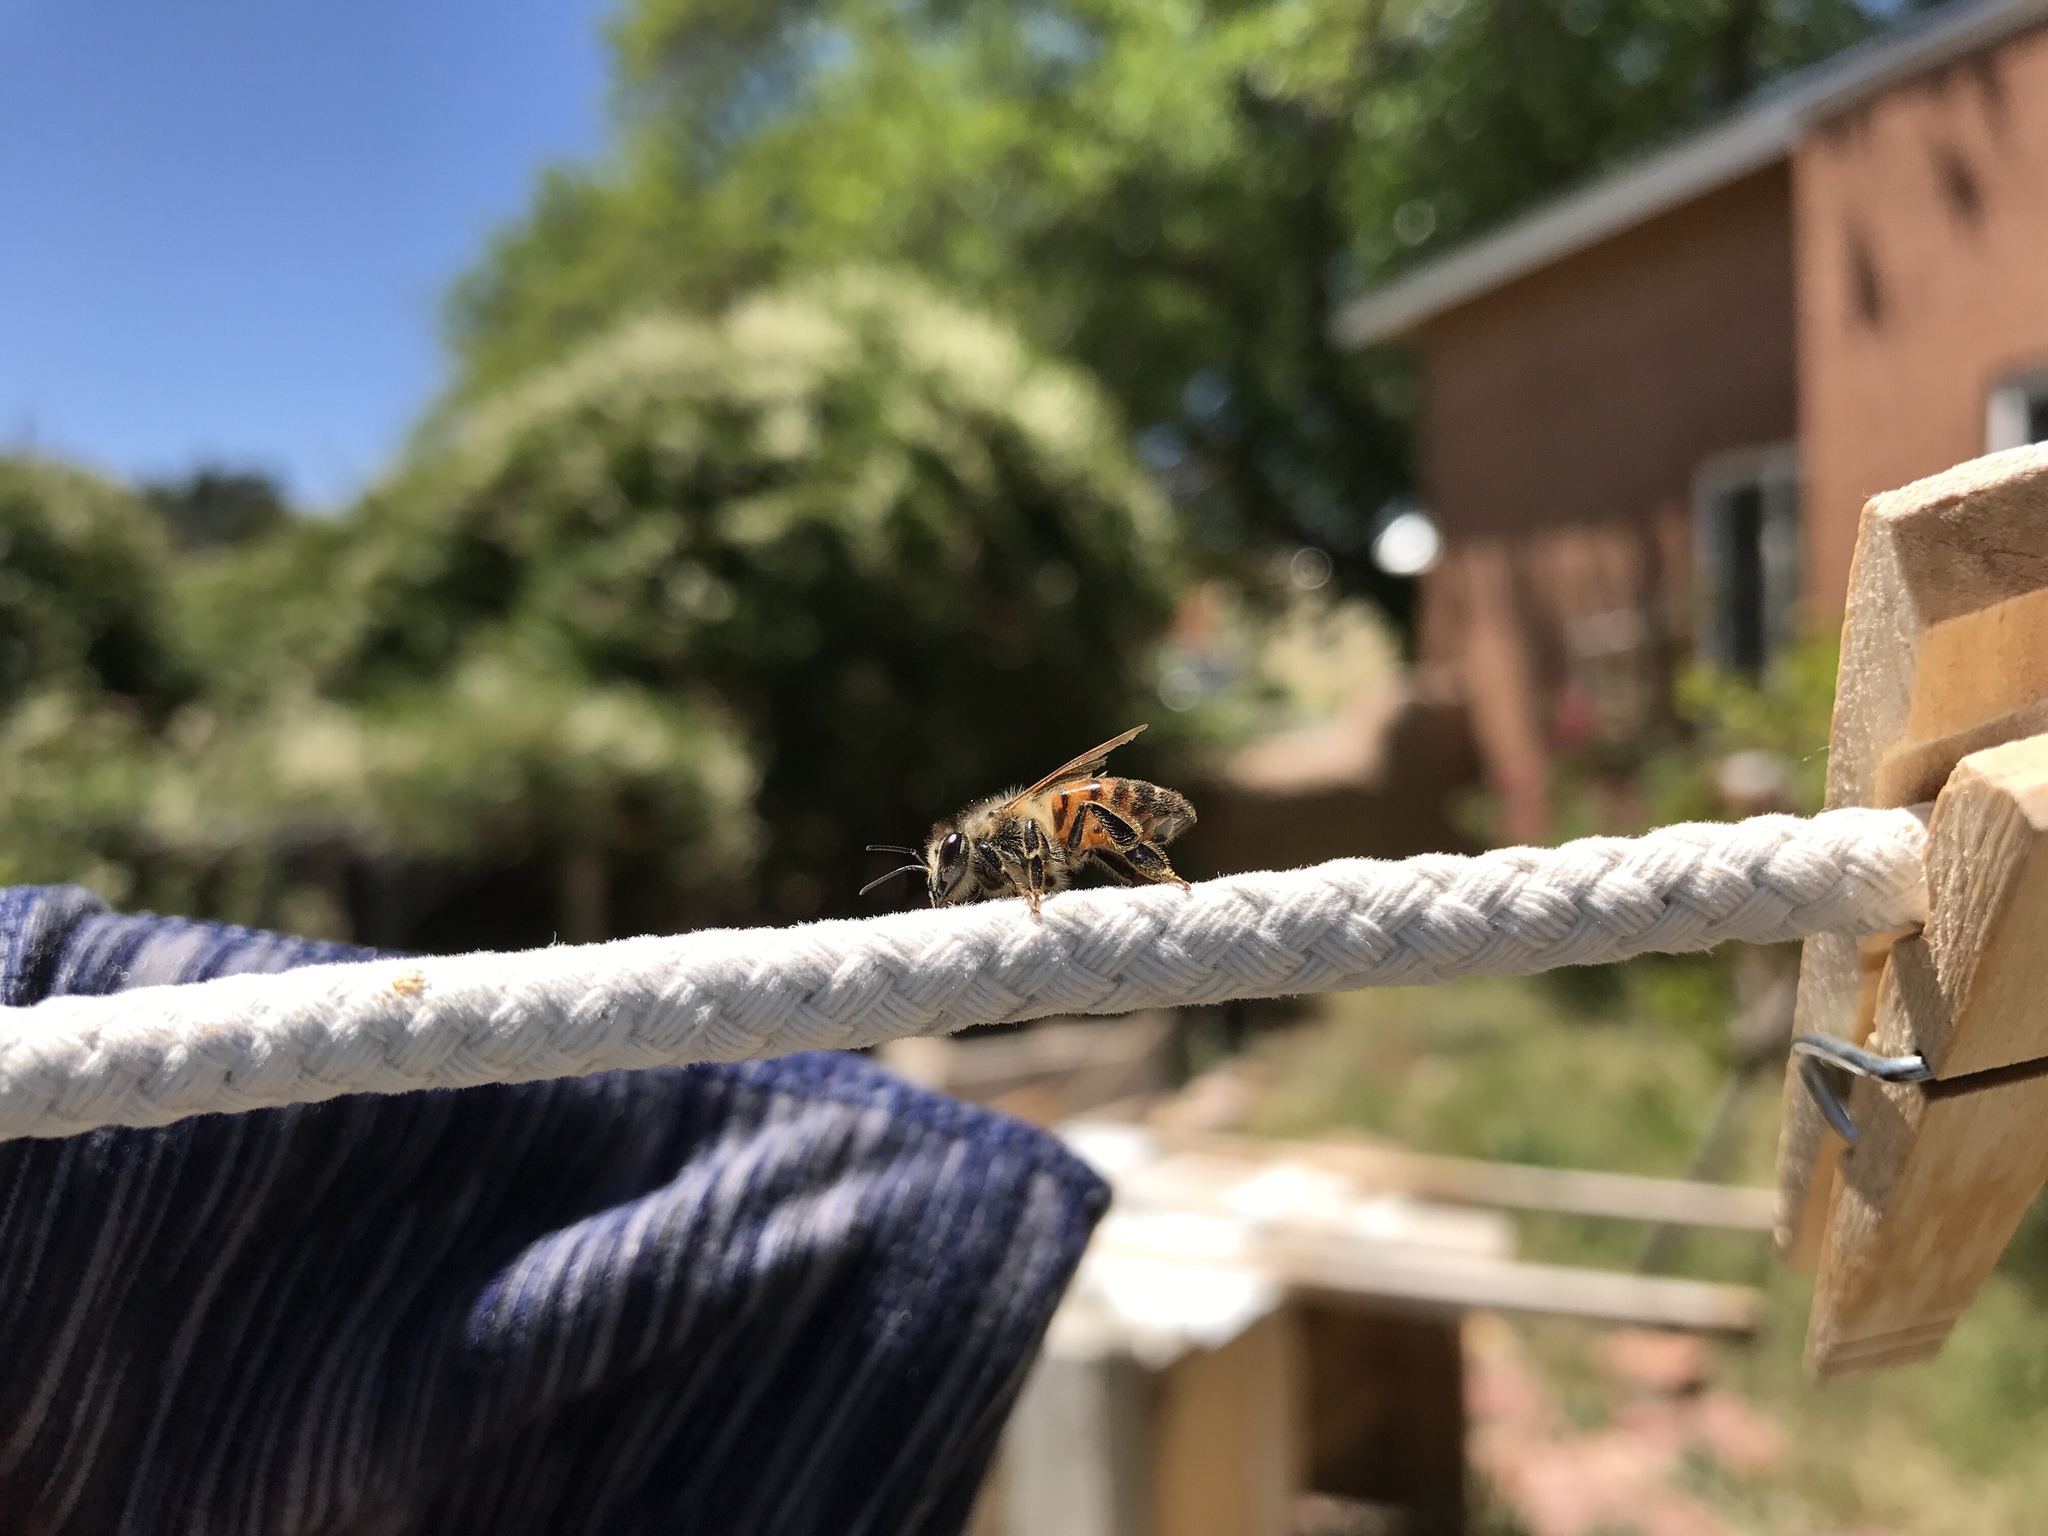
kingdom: Animalia
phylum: Arthropoda
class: Insecta
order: Hymenoptera
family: Apidae
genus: Apis
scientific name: Apis mellifera
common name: Honey bee
